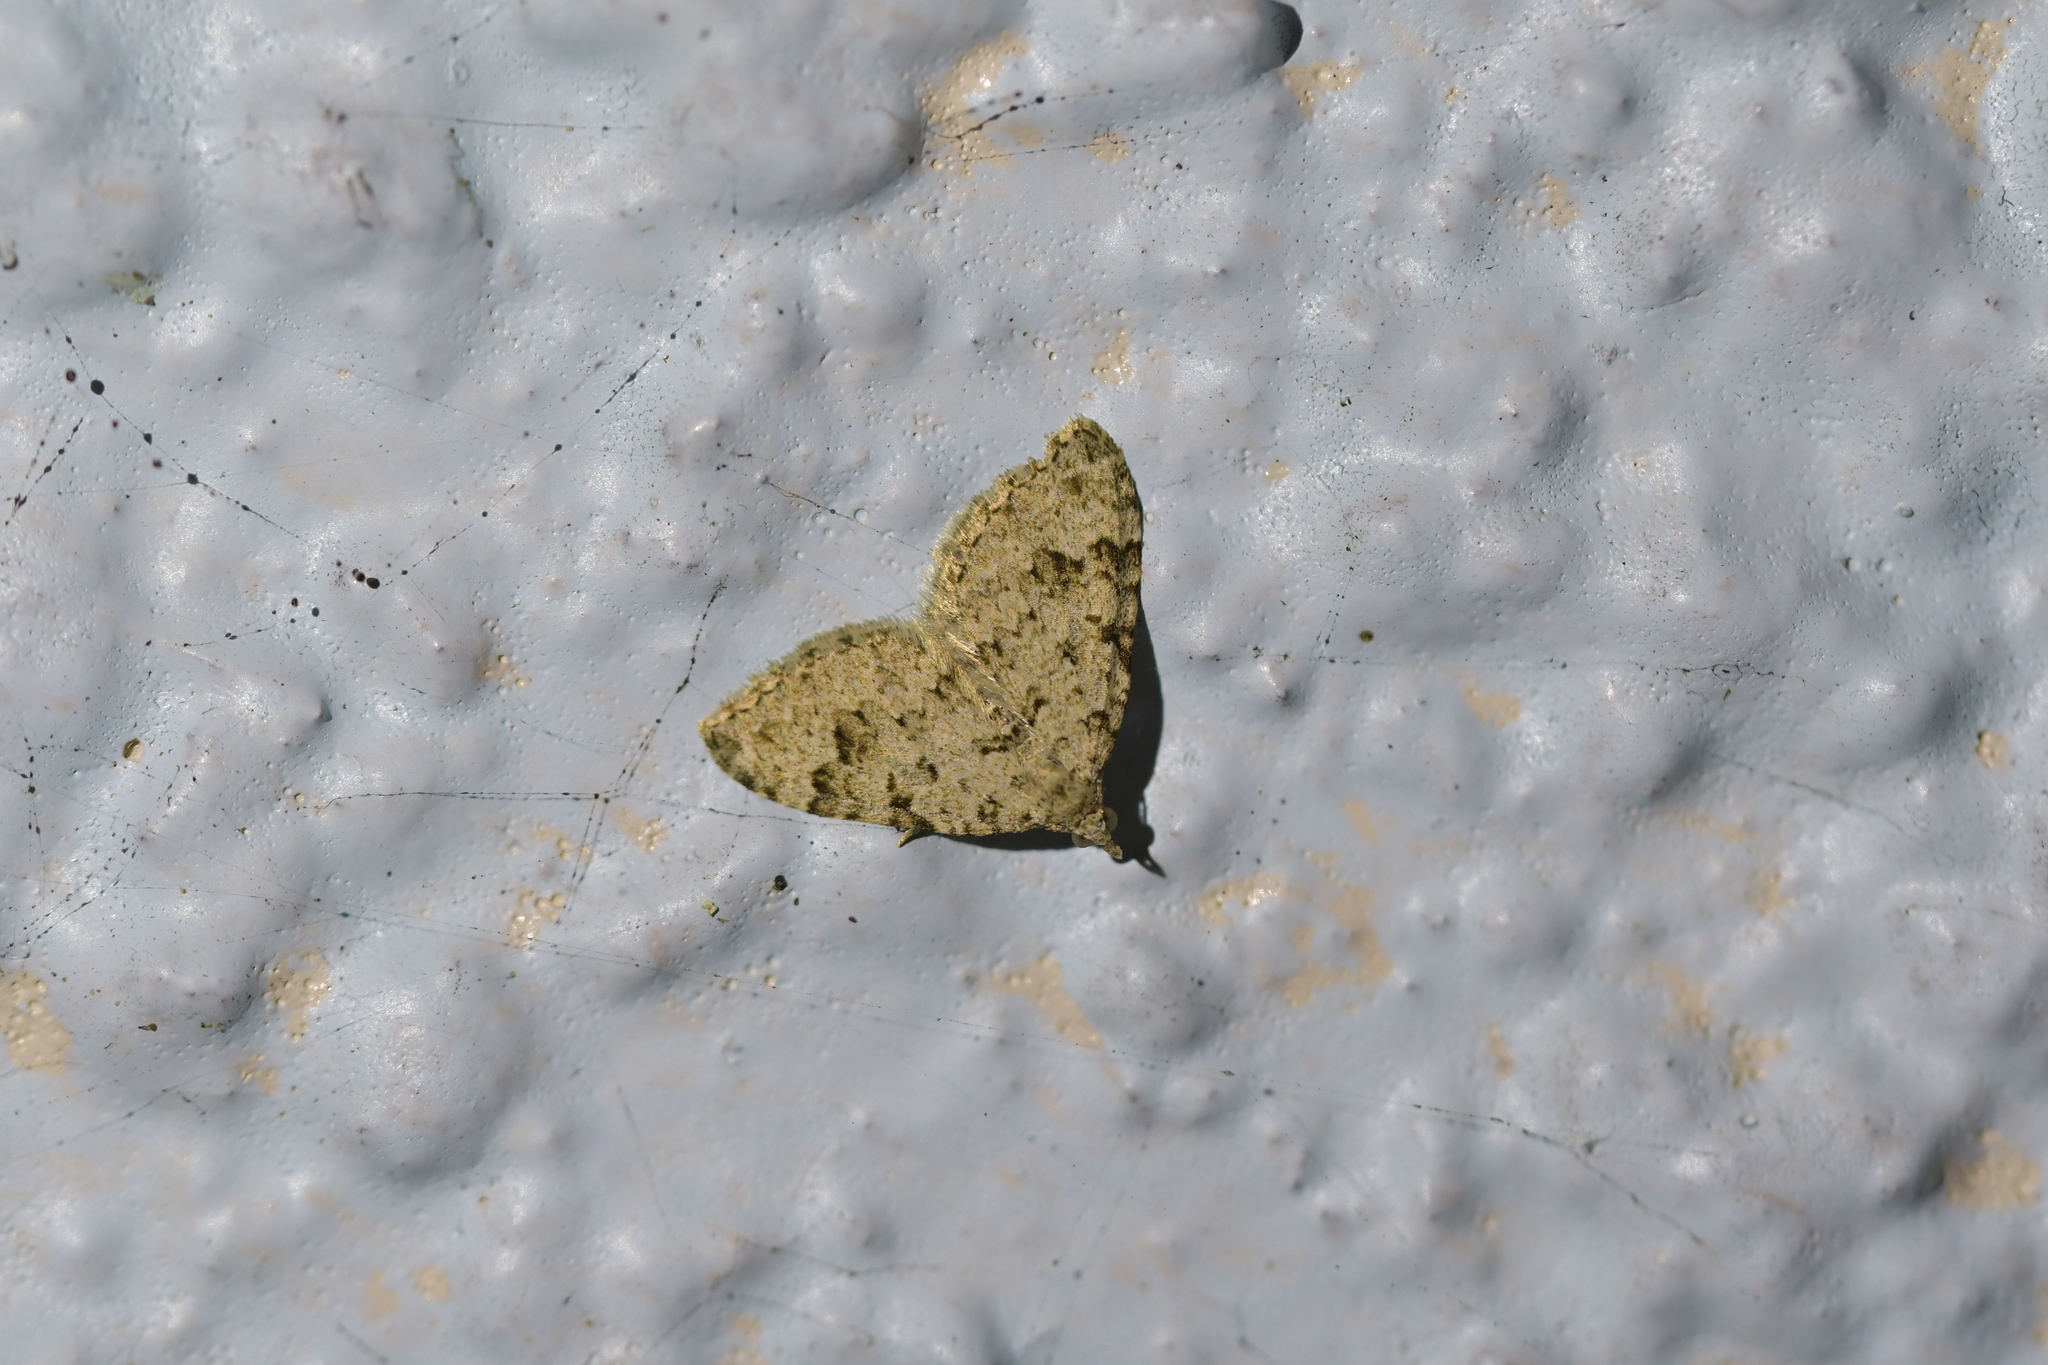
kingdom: Animalia
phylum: Arthropoda
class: Insecta
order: Lepidoptera
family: Geometridae
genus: Helastia
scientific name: Helastia cinerearia
